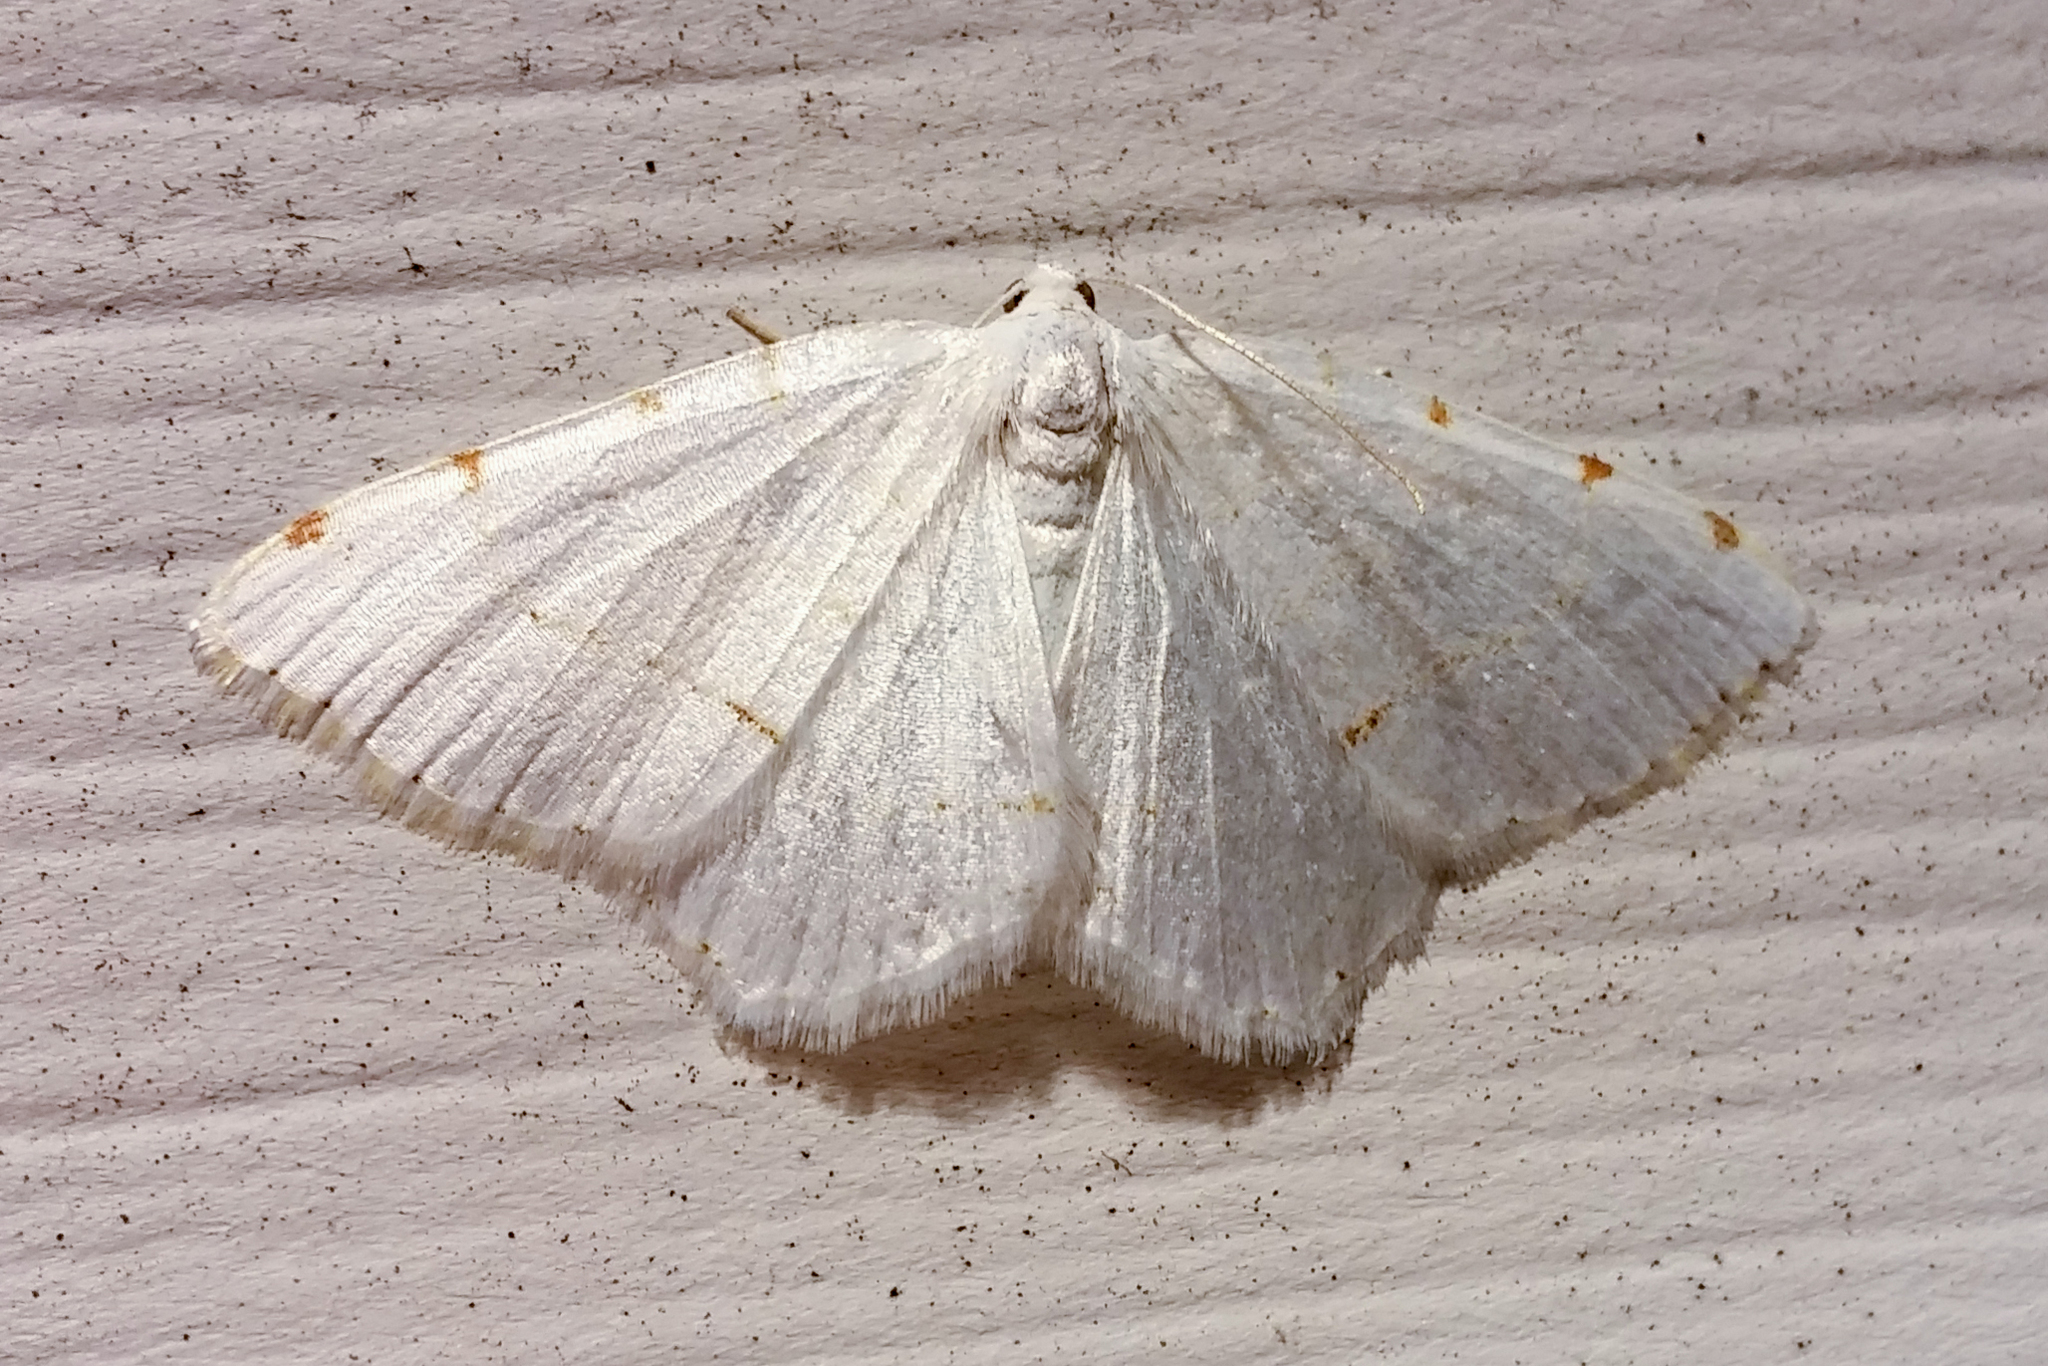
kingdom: Animalia
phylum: Arthropoda
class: Insecta
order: Lepidoptera
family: Geometridae
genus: Macaria
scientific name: Macaria pustularia
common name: Lesser maple spanworm moth
